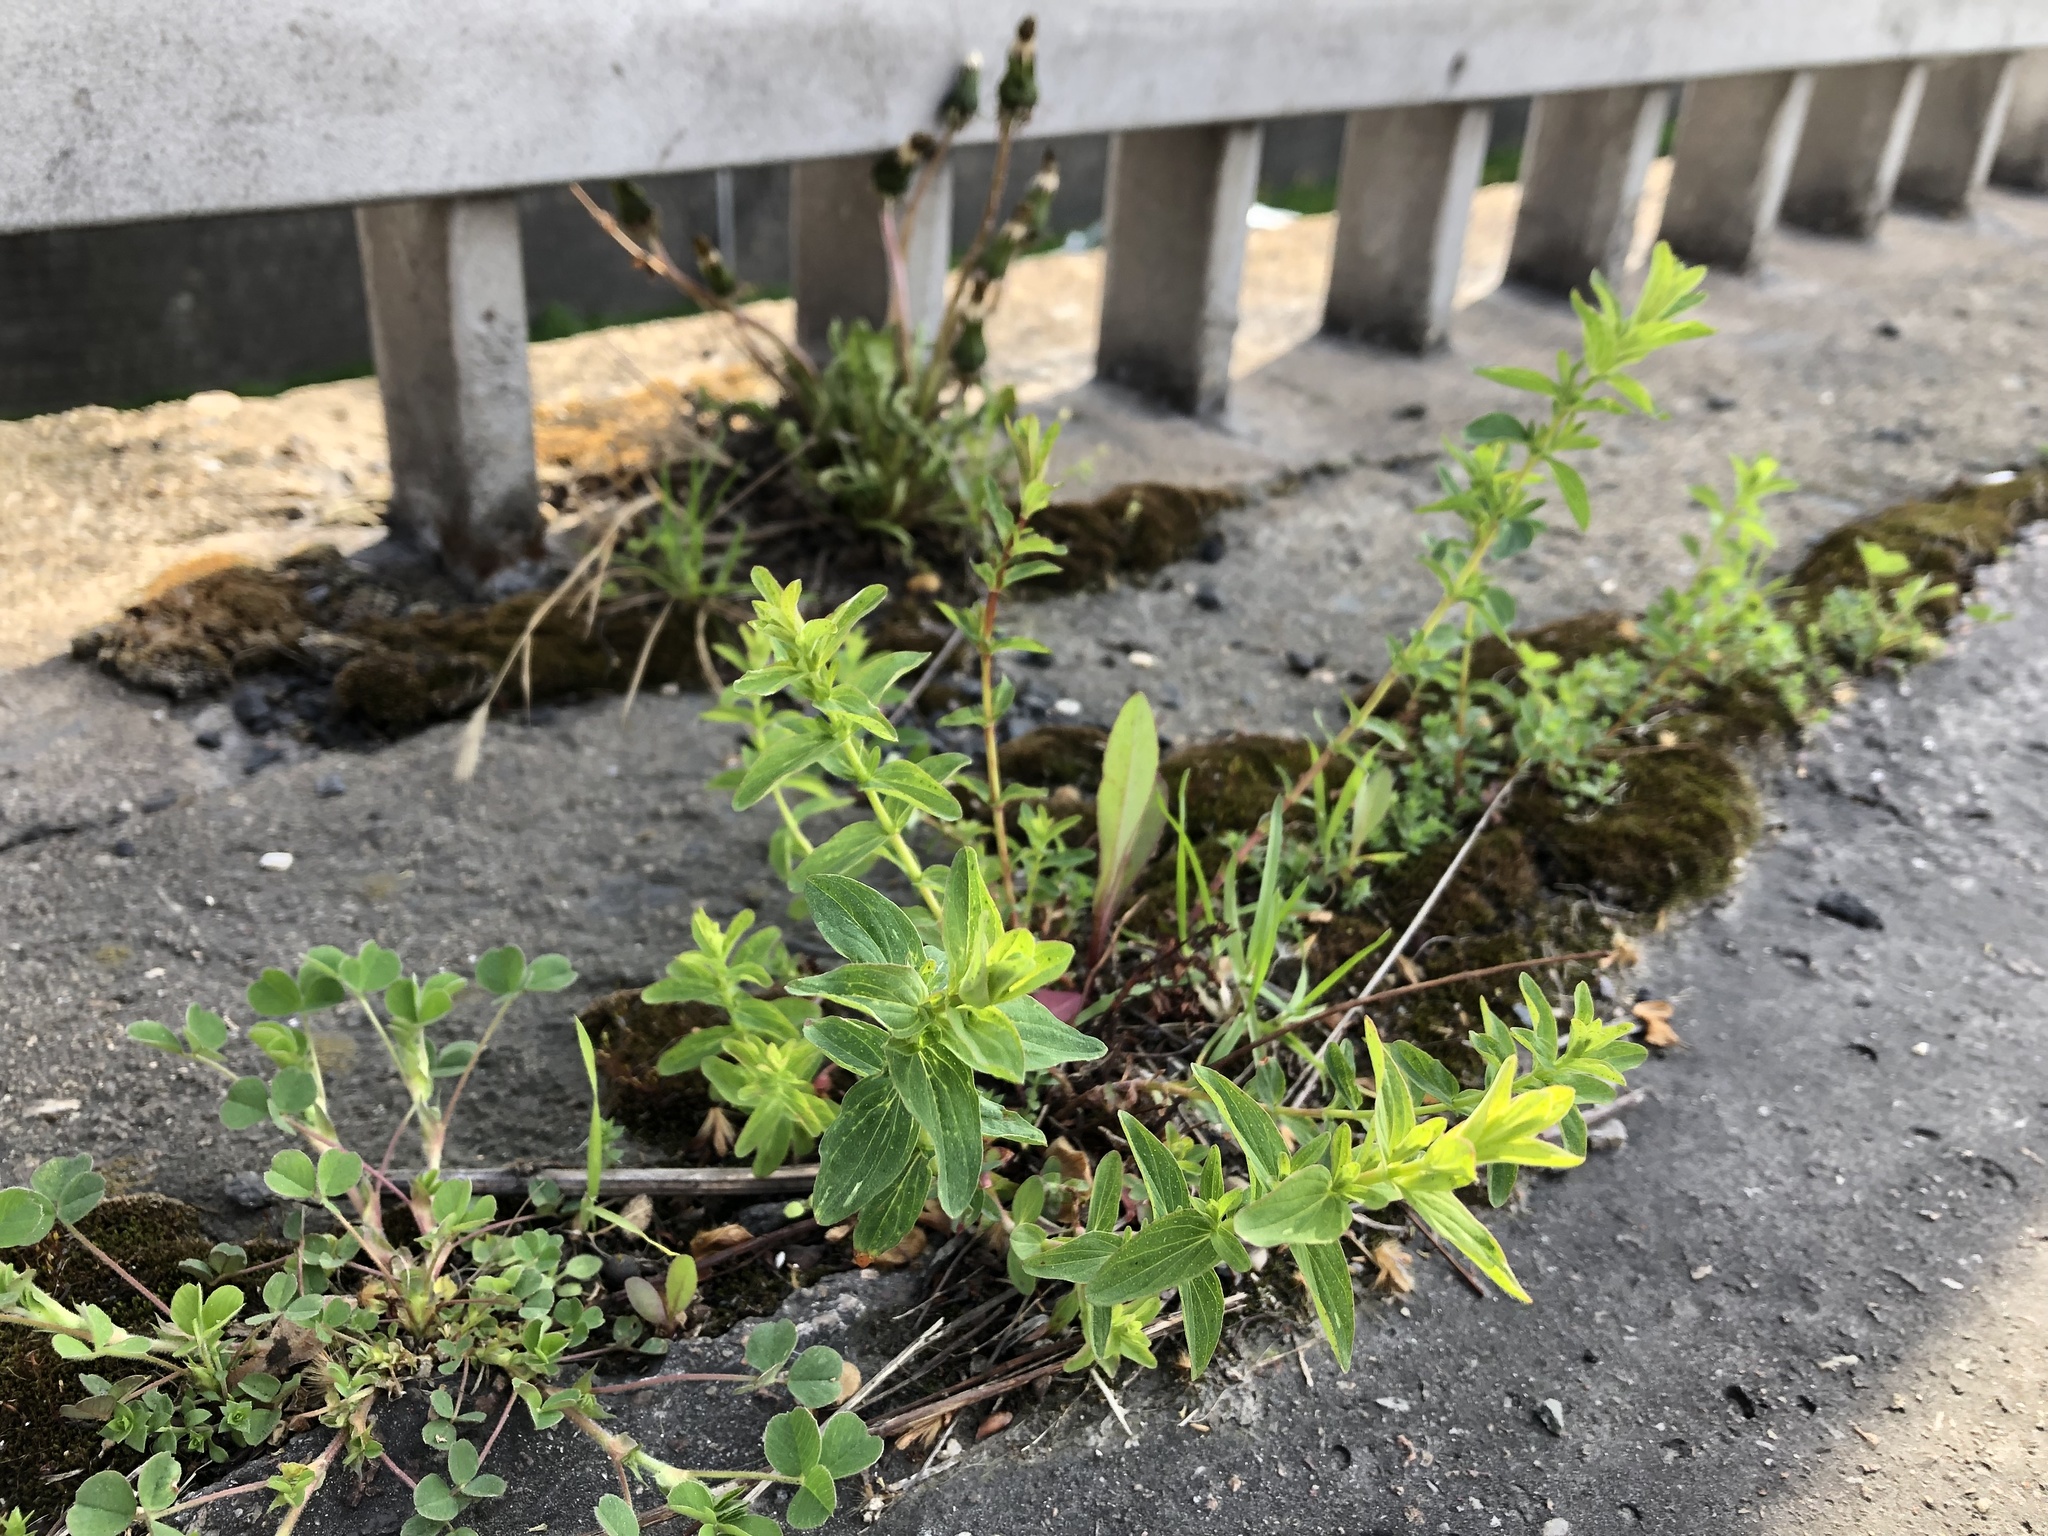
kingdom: Plantae
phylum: Tracheophyta
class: Magnoliopsida
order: Malpighiales
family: Hypericaceae
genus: Hypericum
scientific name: Hypericum perforatum
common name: Common st. johnswort
